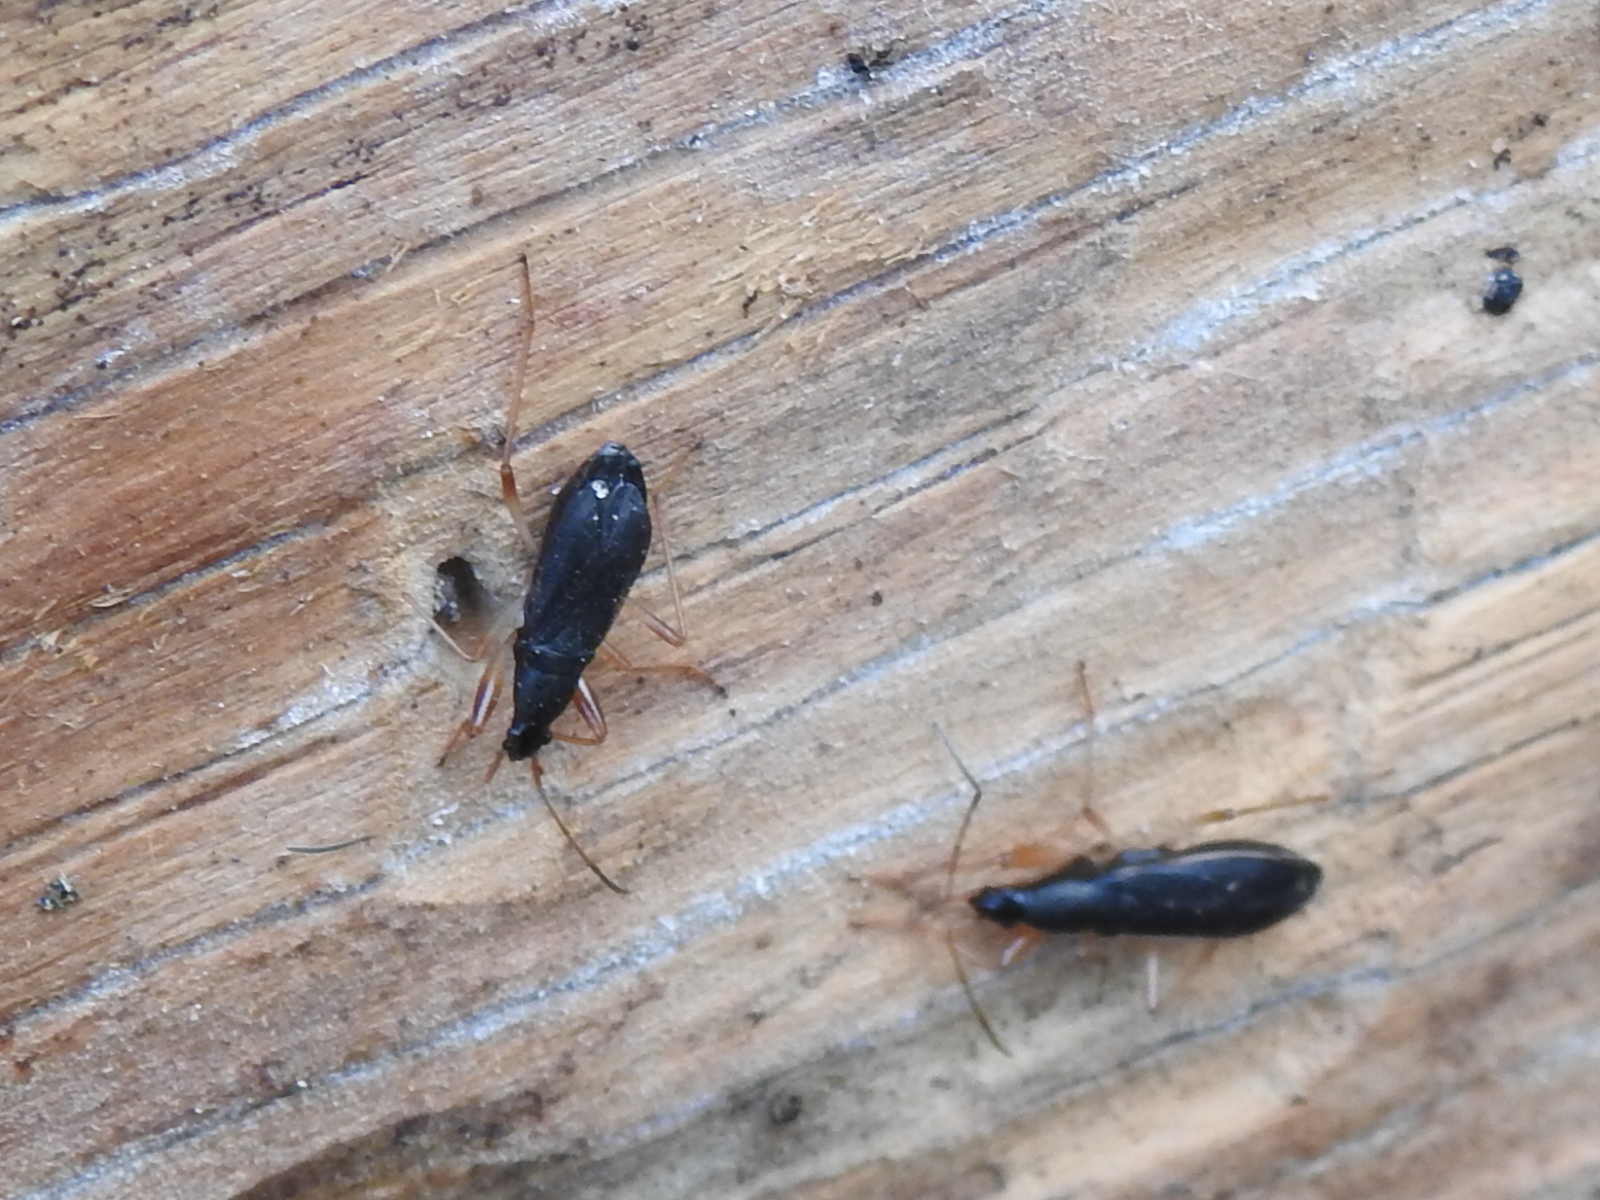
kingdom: Animalia
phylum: Arthropoda
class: Insecta
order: Hemiptera
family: Rhyparochromidae
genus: Cnemodus
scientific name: Cnemodus mavortius
